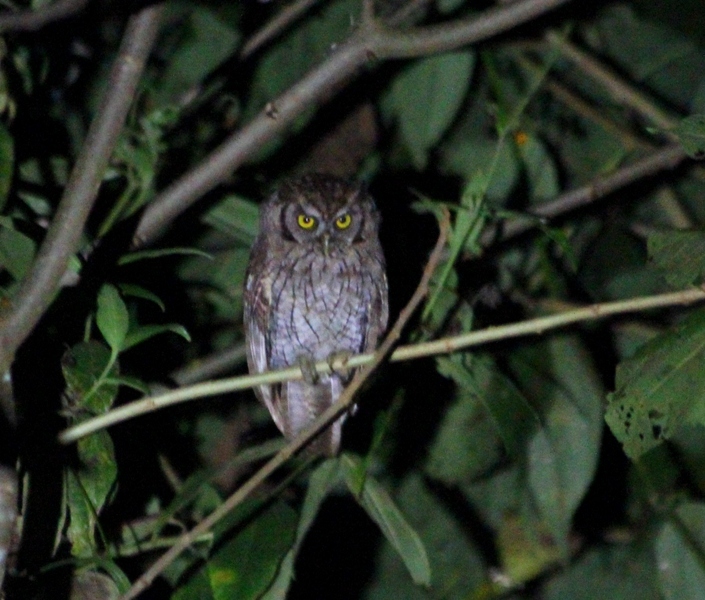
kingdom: Animalia
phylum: Chordata
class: Aves
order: Strigiformes
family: Strigidae
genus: Megascops
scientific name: Megascops choliba
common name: Tropical screech-owl
